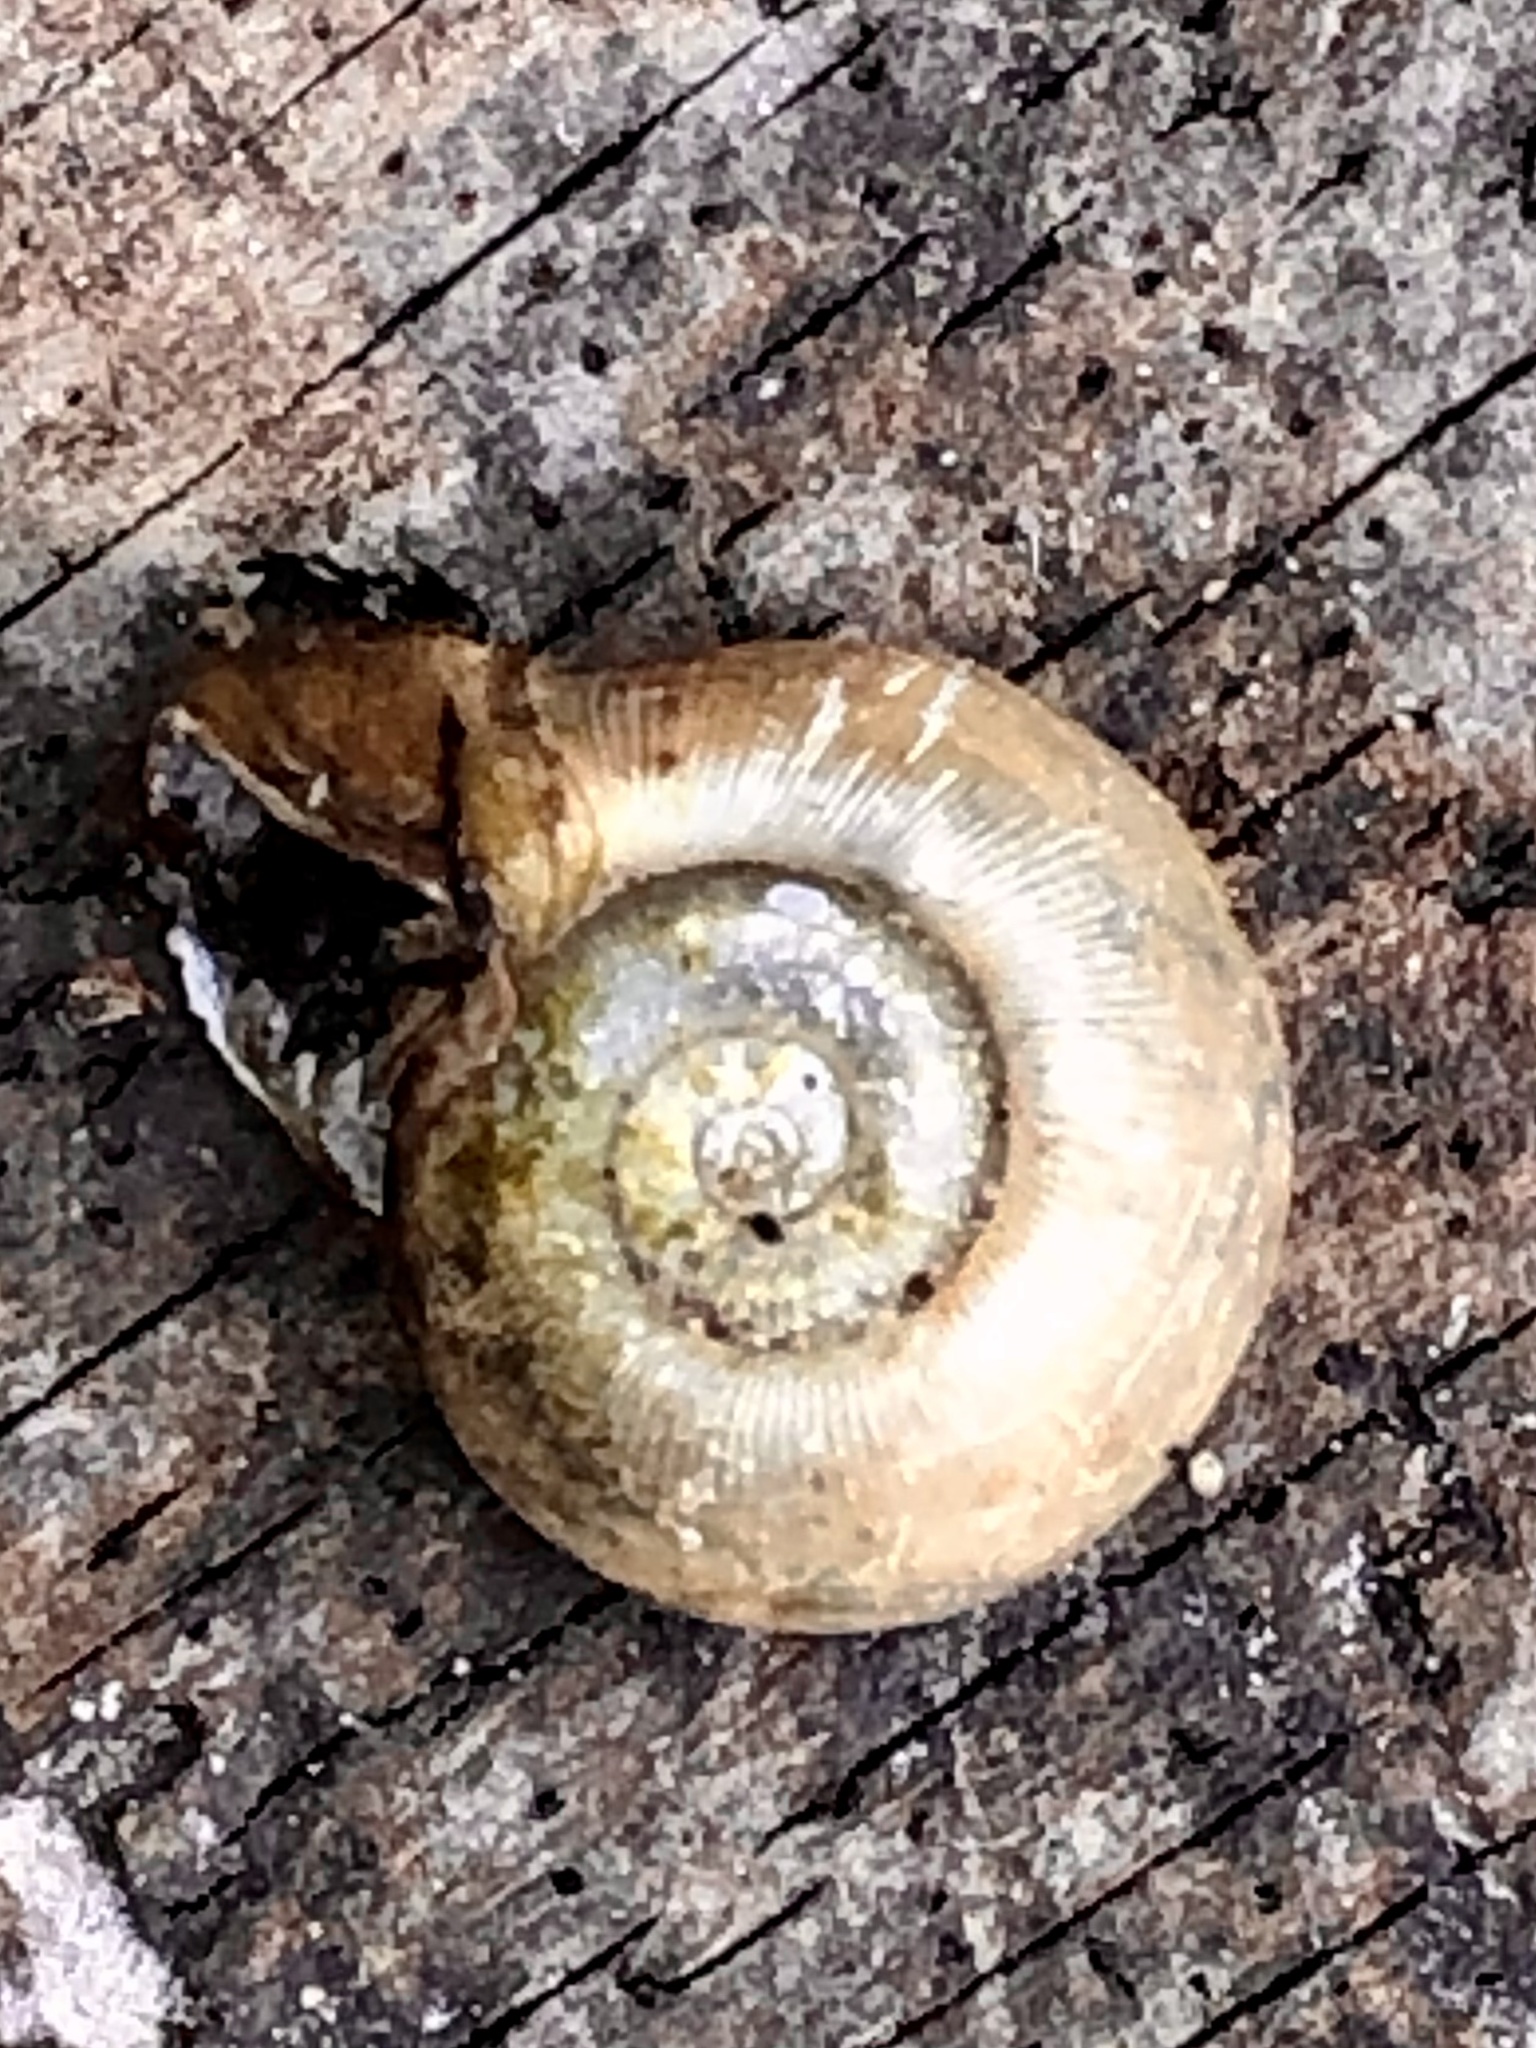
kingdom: Animalia
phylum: Mollusca
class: Gastropoda
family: Planorbidae
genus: Planorbella
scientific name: Planorbella campanulata
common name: Bellmouth ramshorn
